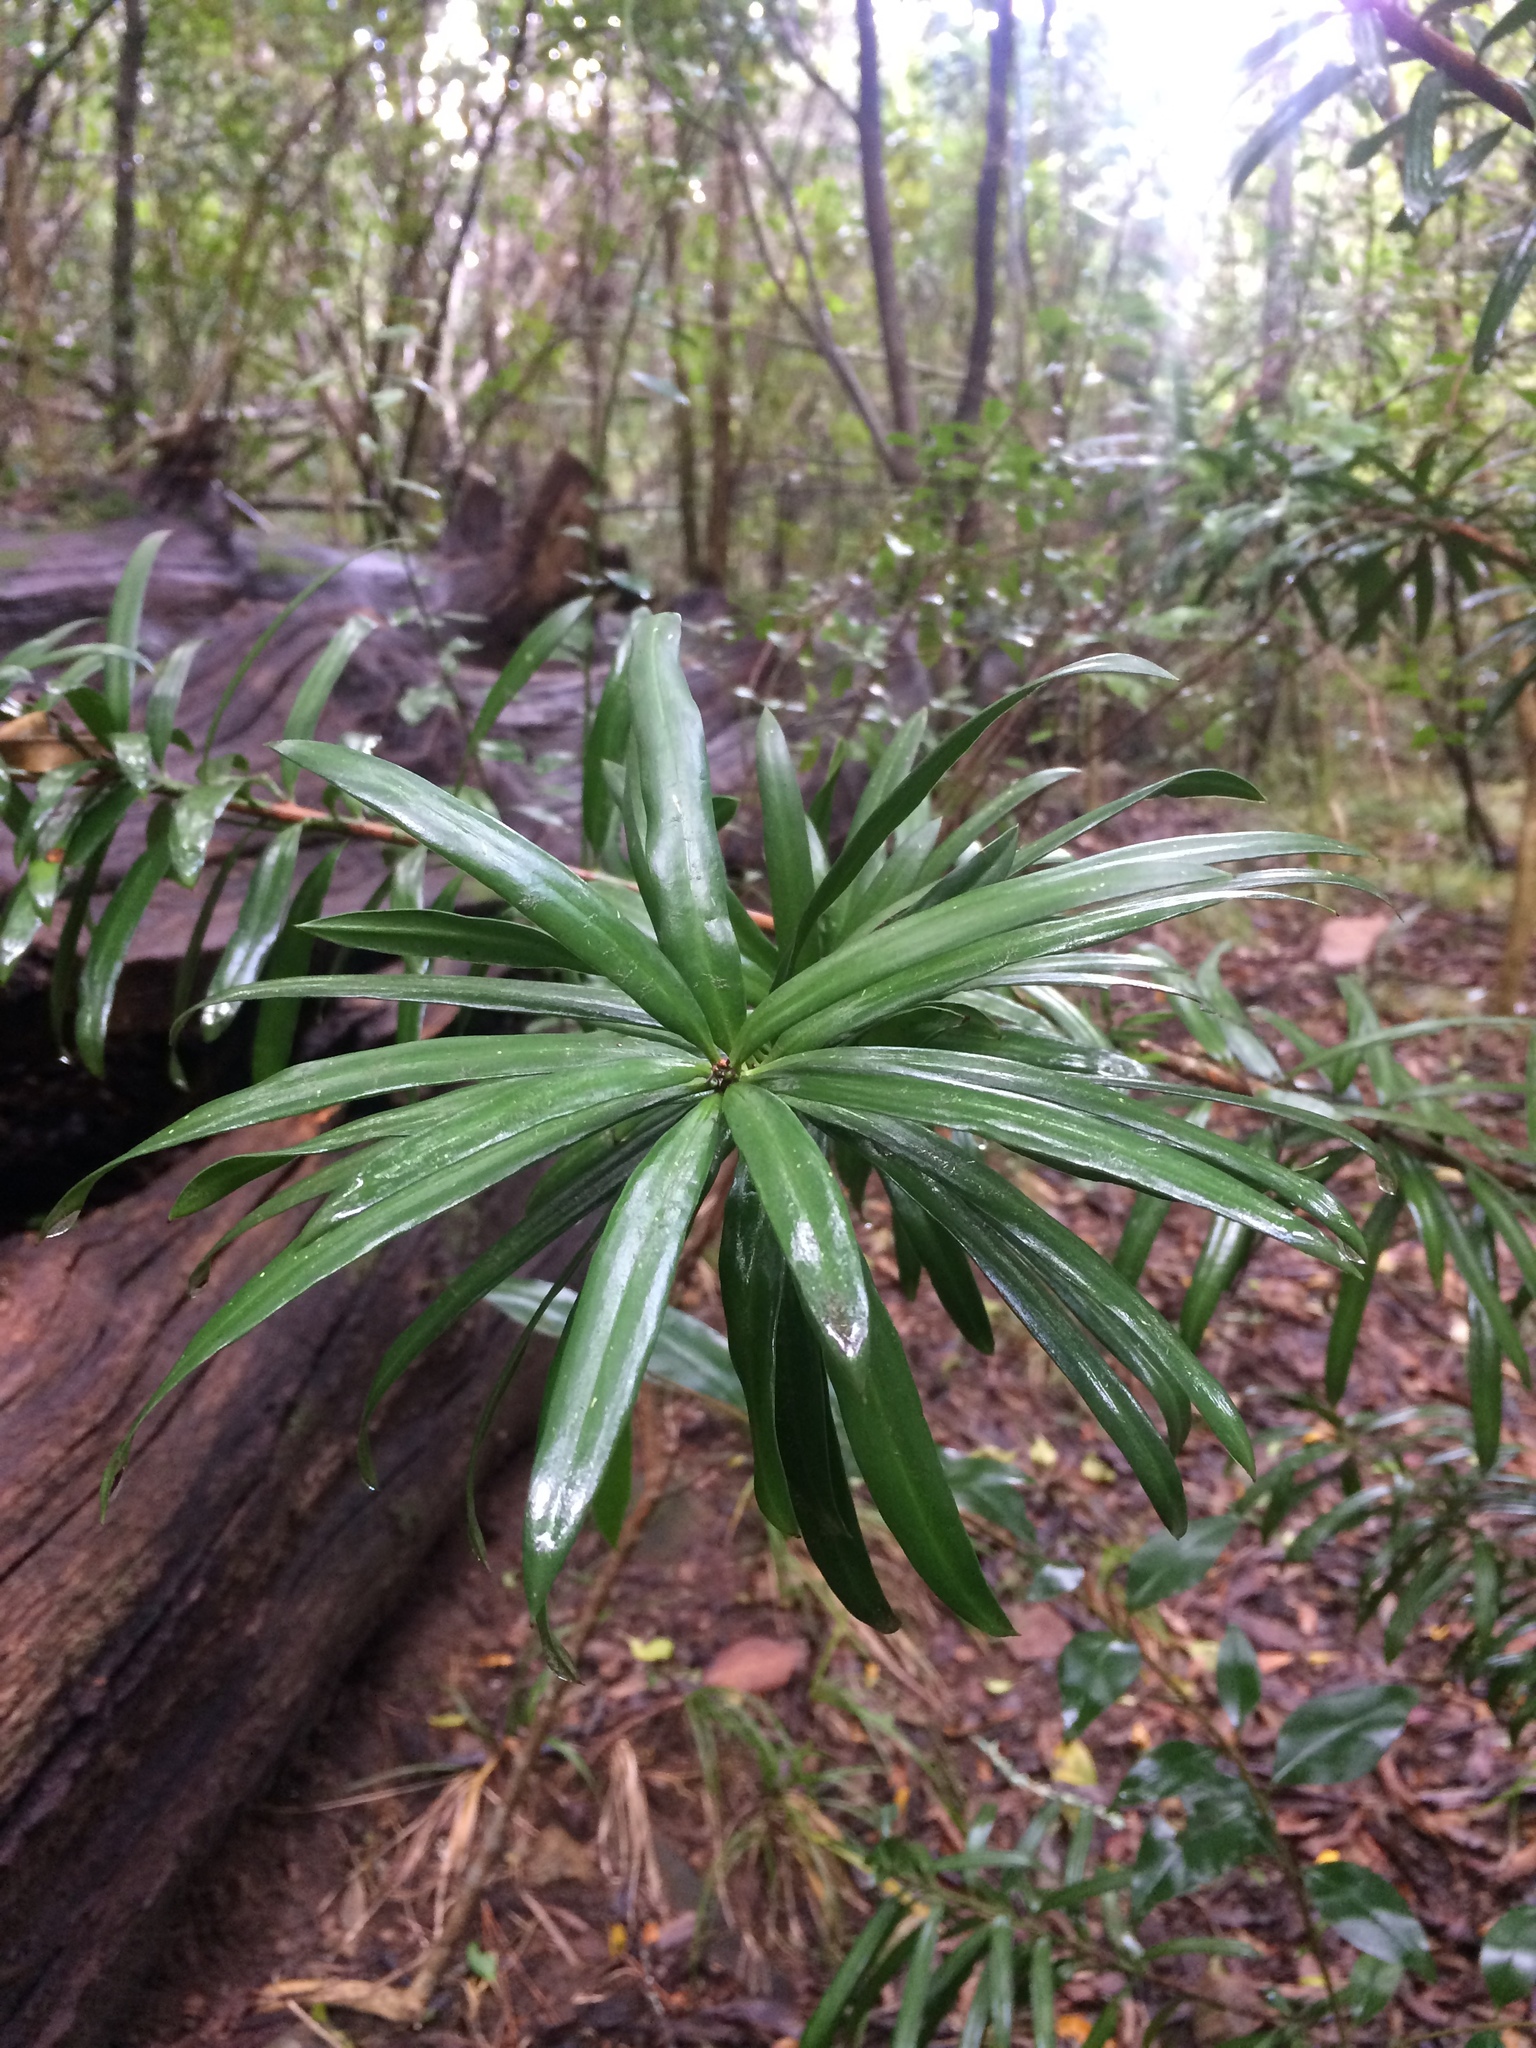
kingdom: Plantae
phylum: Tracheophyta
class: Pinopsida
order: Pinales
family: Podocarpaceae
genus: Podocarpus
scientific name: Podocarpus latifolius
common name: True yellowwood
